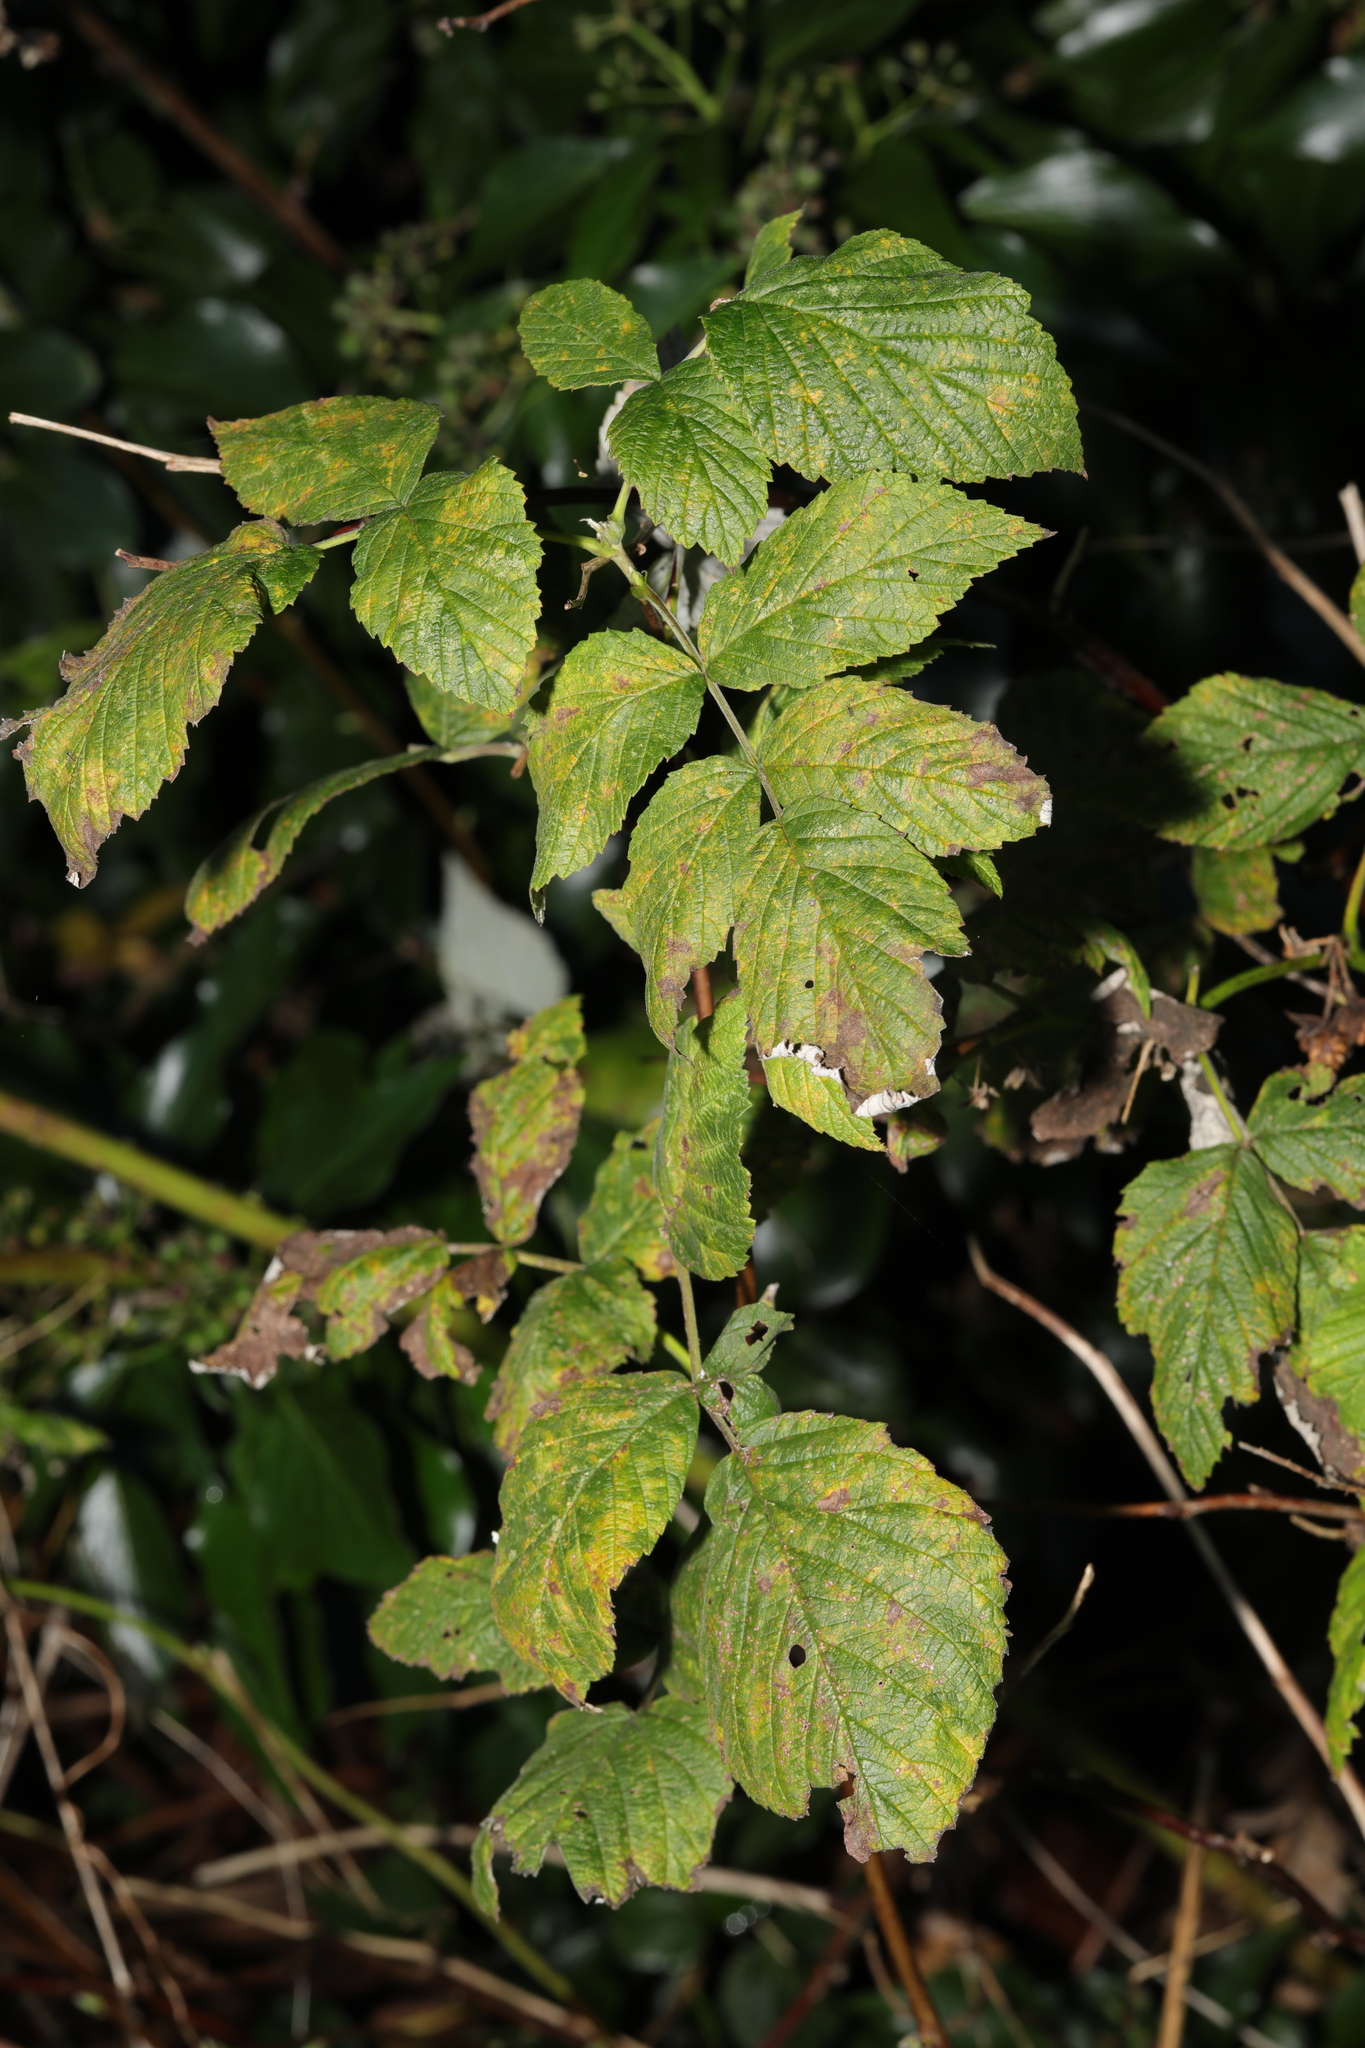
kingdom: Plantae
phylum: Tracheophyta
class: Magnoliopsida
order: Rosales
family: Rosaceae
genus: Rubus
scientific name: Rubus idaeus
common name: Raspberry
